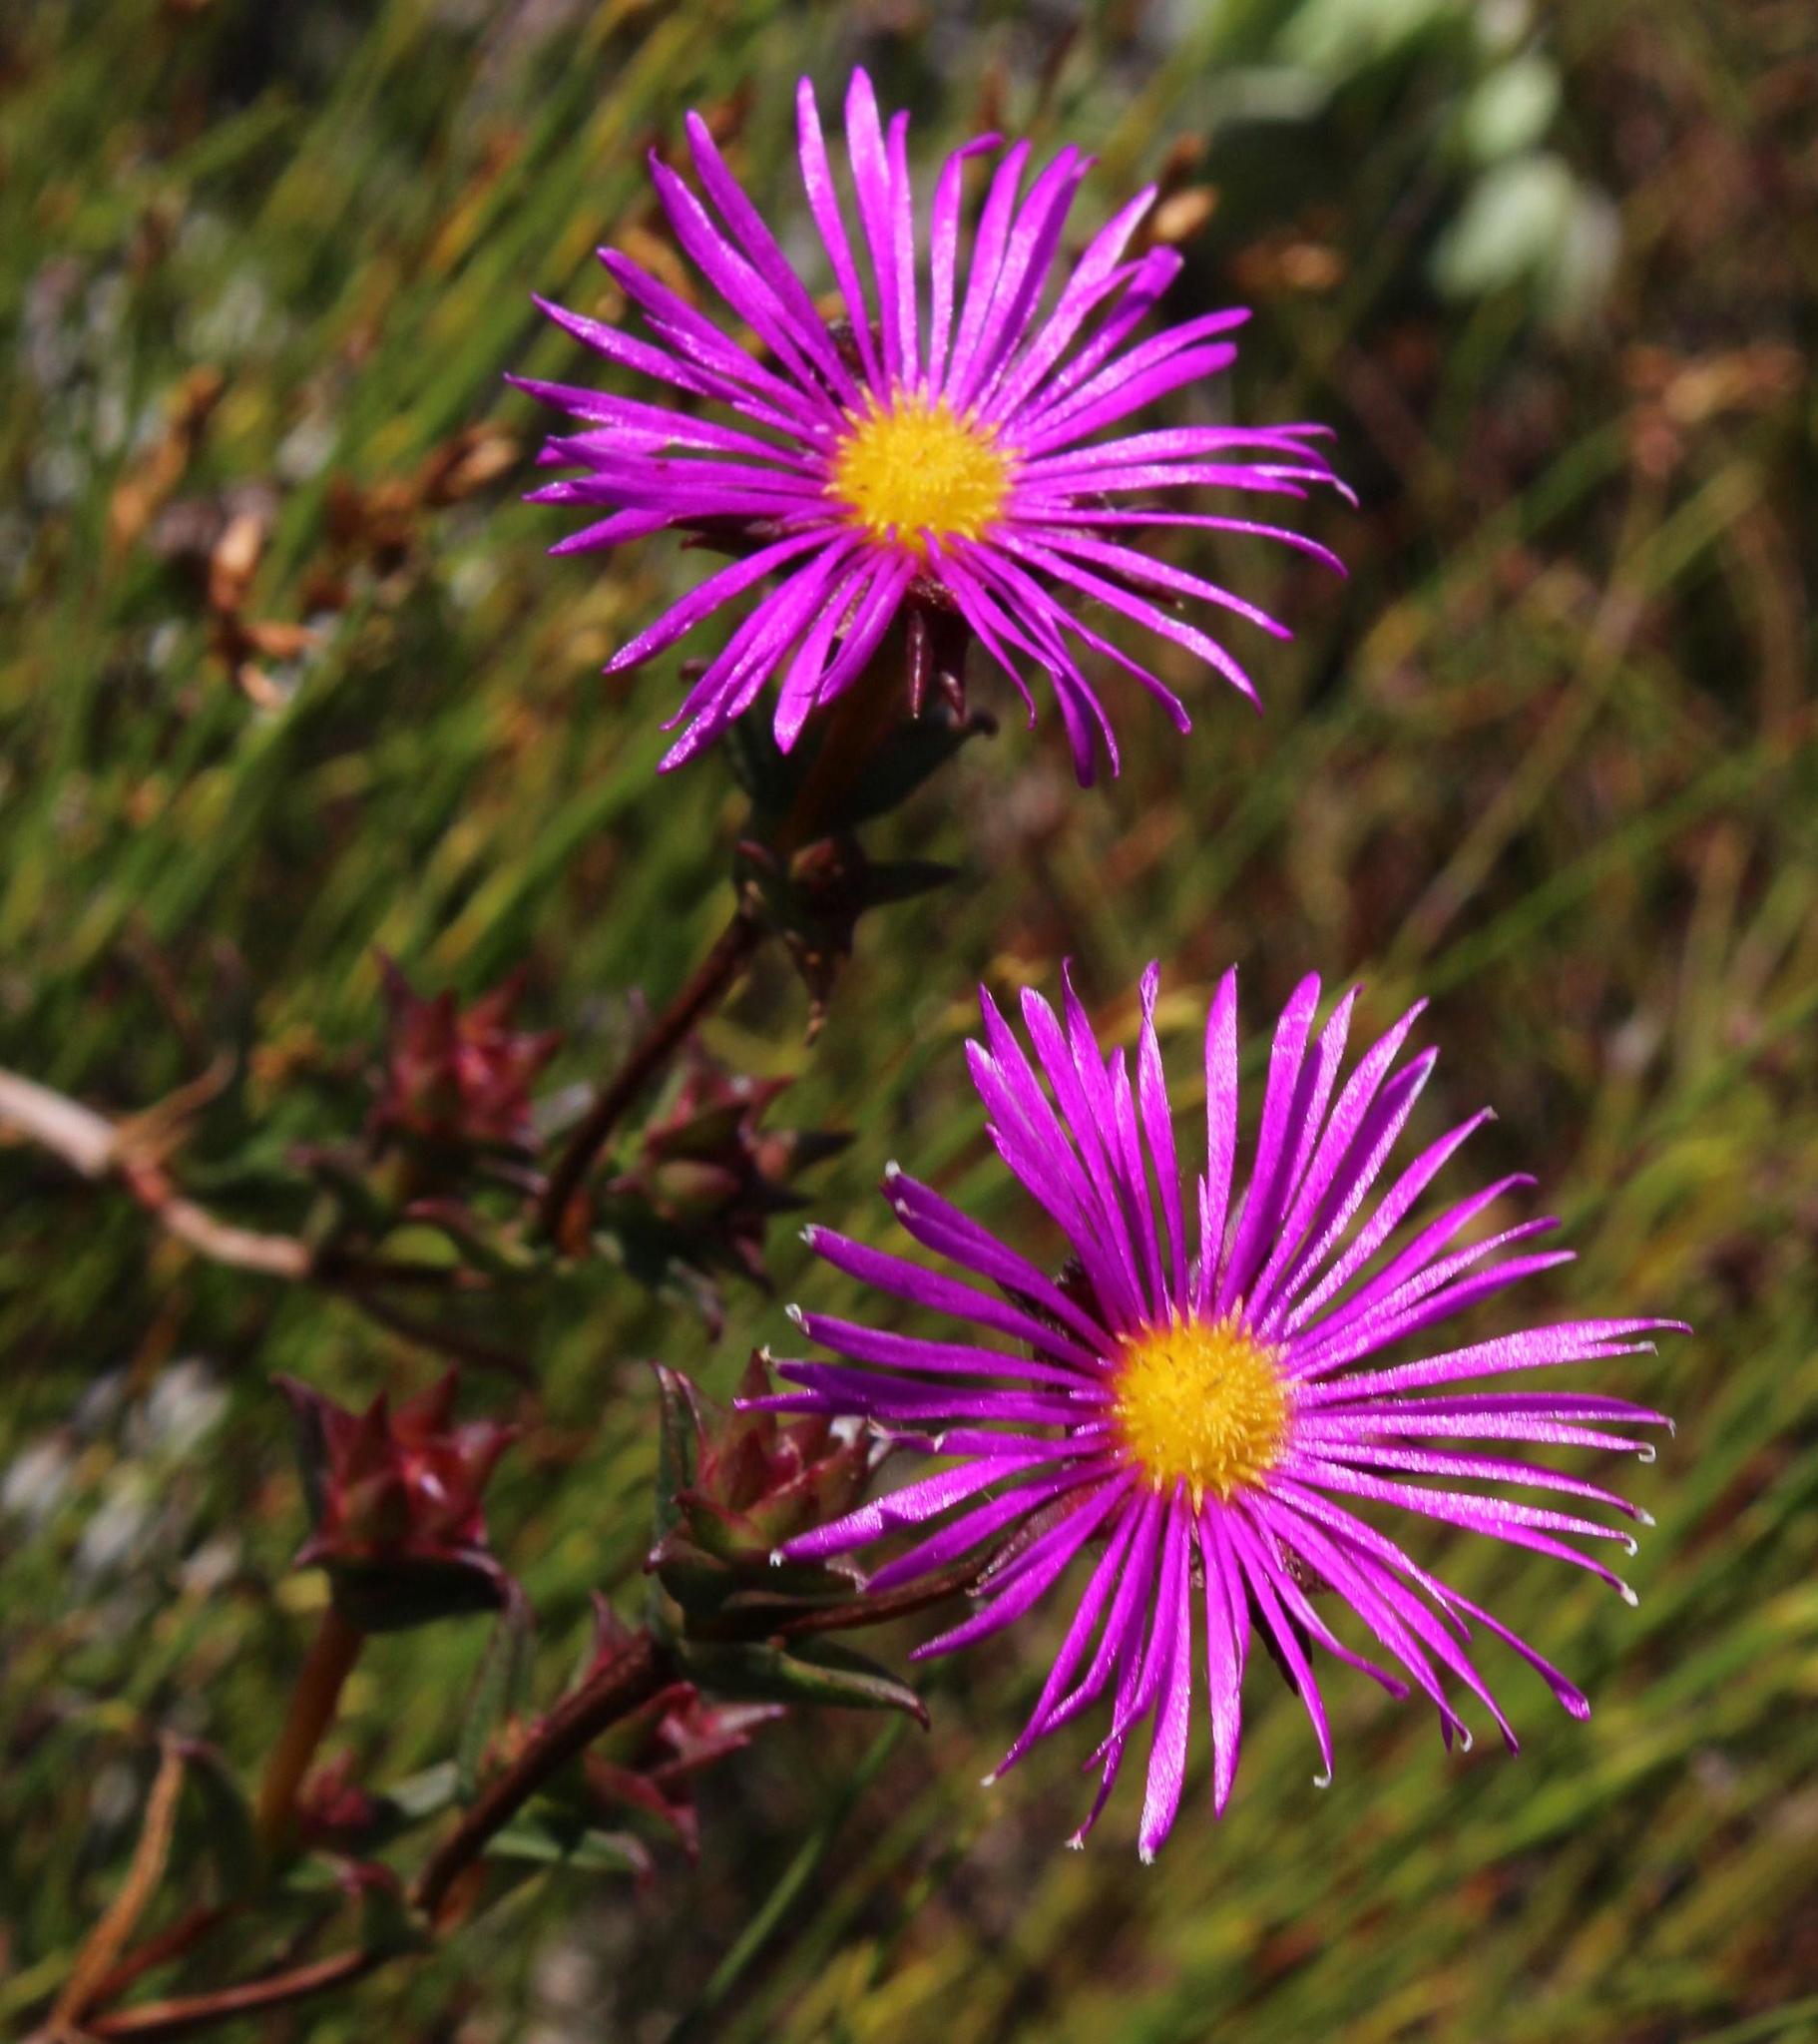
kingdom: Plantae
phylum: Tracheophyta
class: Magnoliopsida
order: Caryophyllales
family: Aizoaceae
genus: Erepsia
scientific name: Erepsia bracteata
